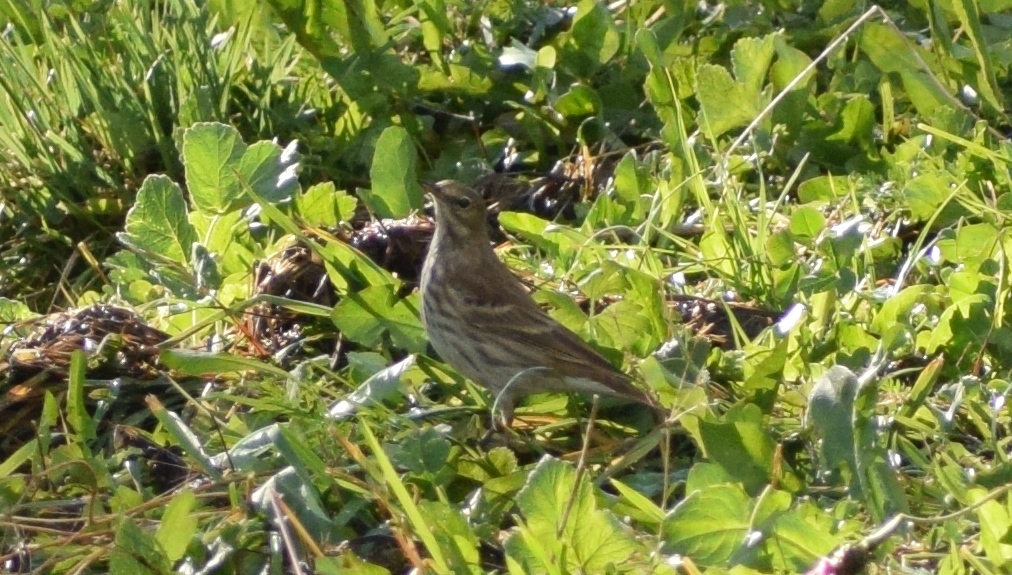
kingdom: Animalia
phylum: Chordata
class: Aves
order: Passeriformes
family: Motacillidae
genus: Anthus
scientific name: Anthus spinoletta
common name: Water pipit
